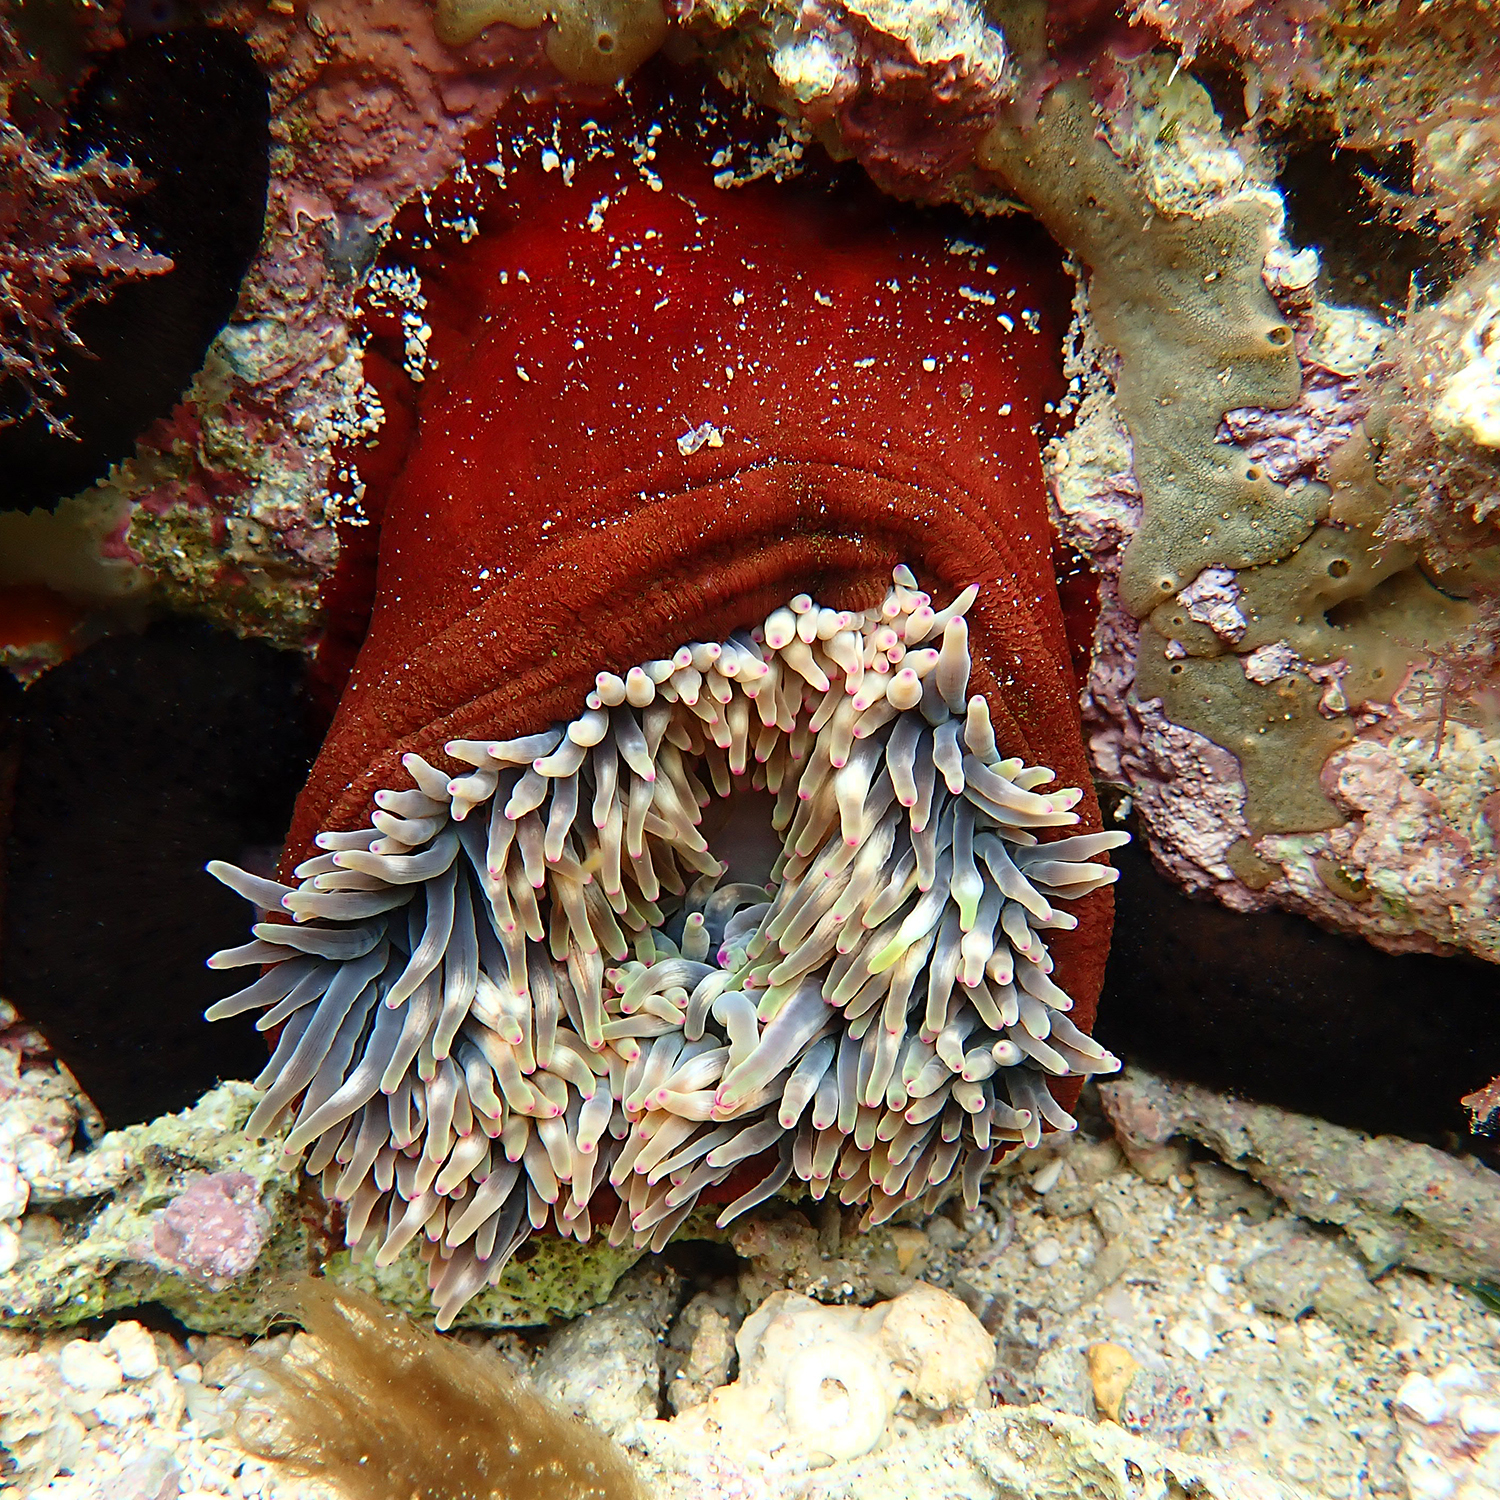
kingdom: Animalia
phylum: Cnidaria
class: Anthozoa
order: Actiniaria
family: Actiniidae
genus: Entacmaea
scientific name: Entacmaea quadricolor
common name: Bulb tentacle sea anemone
